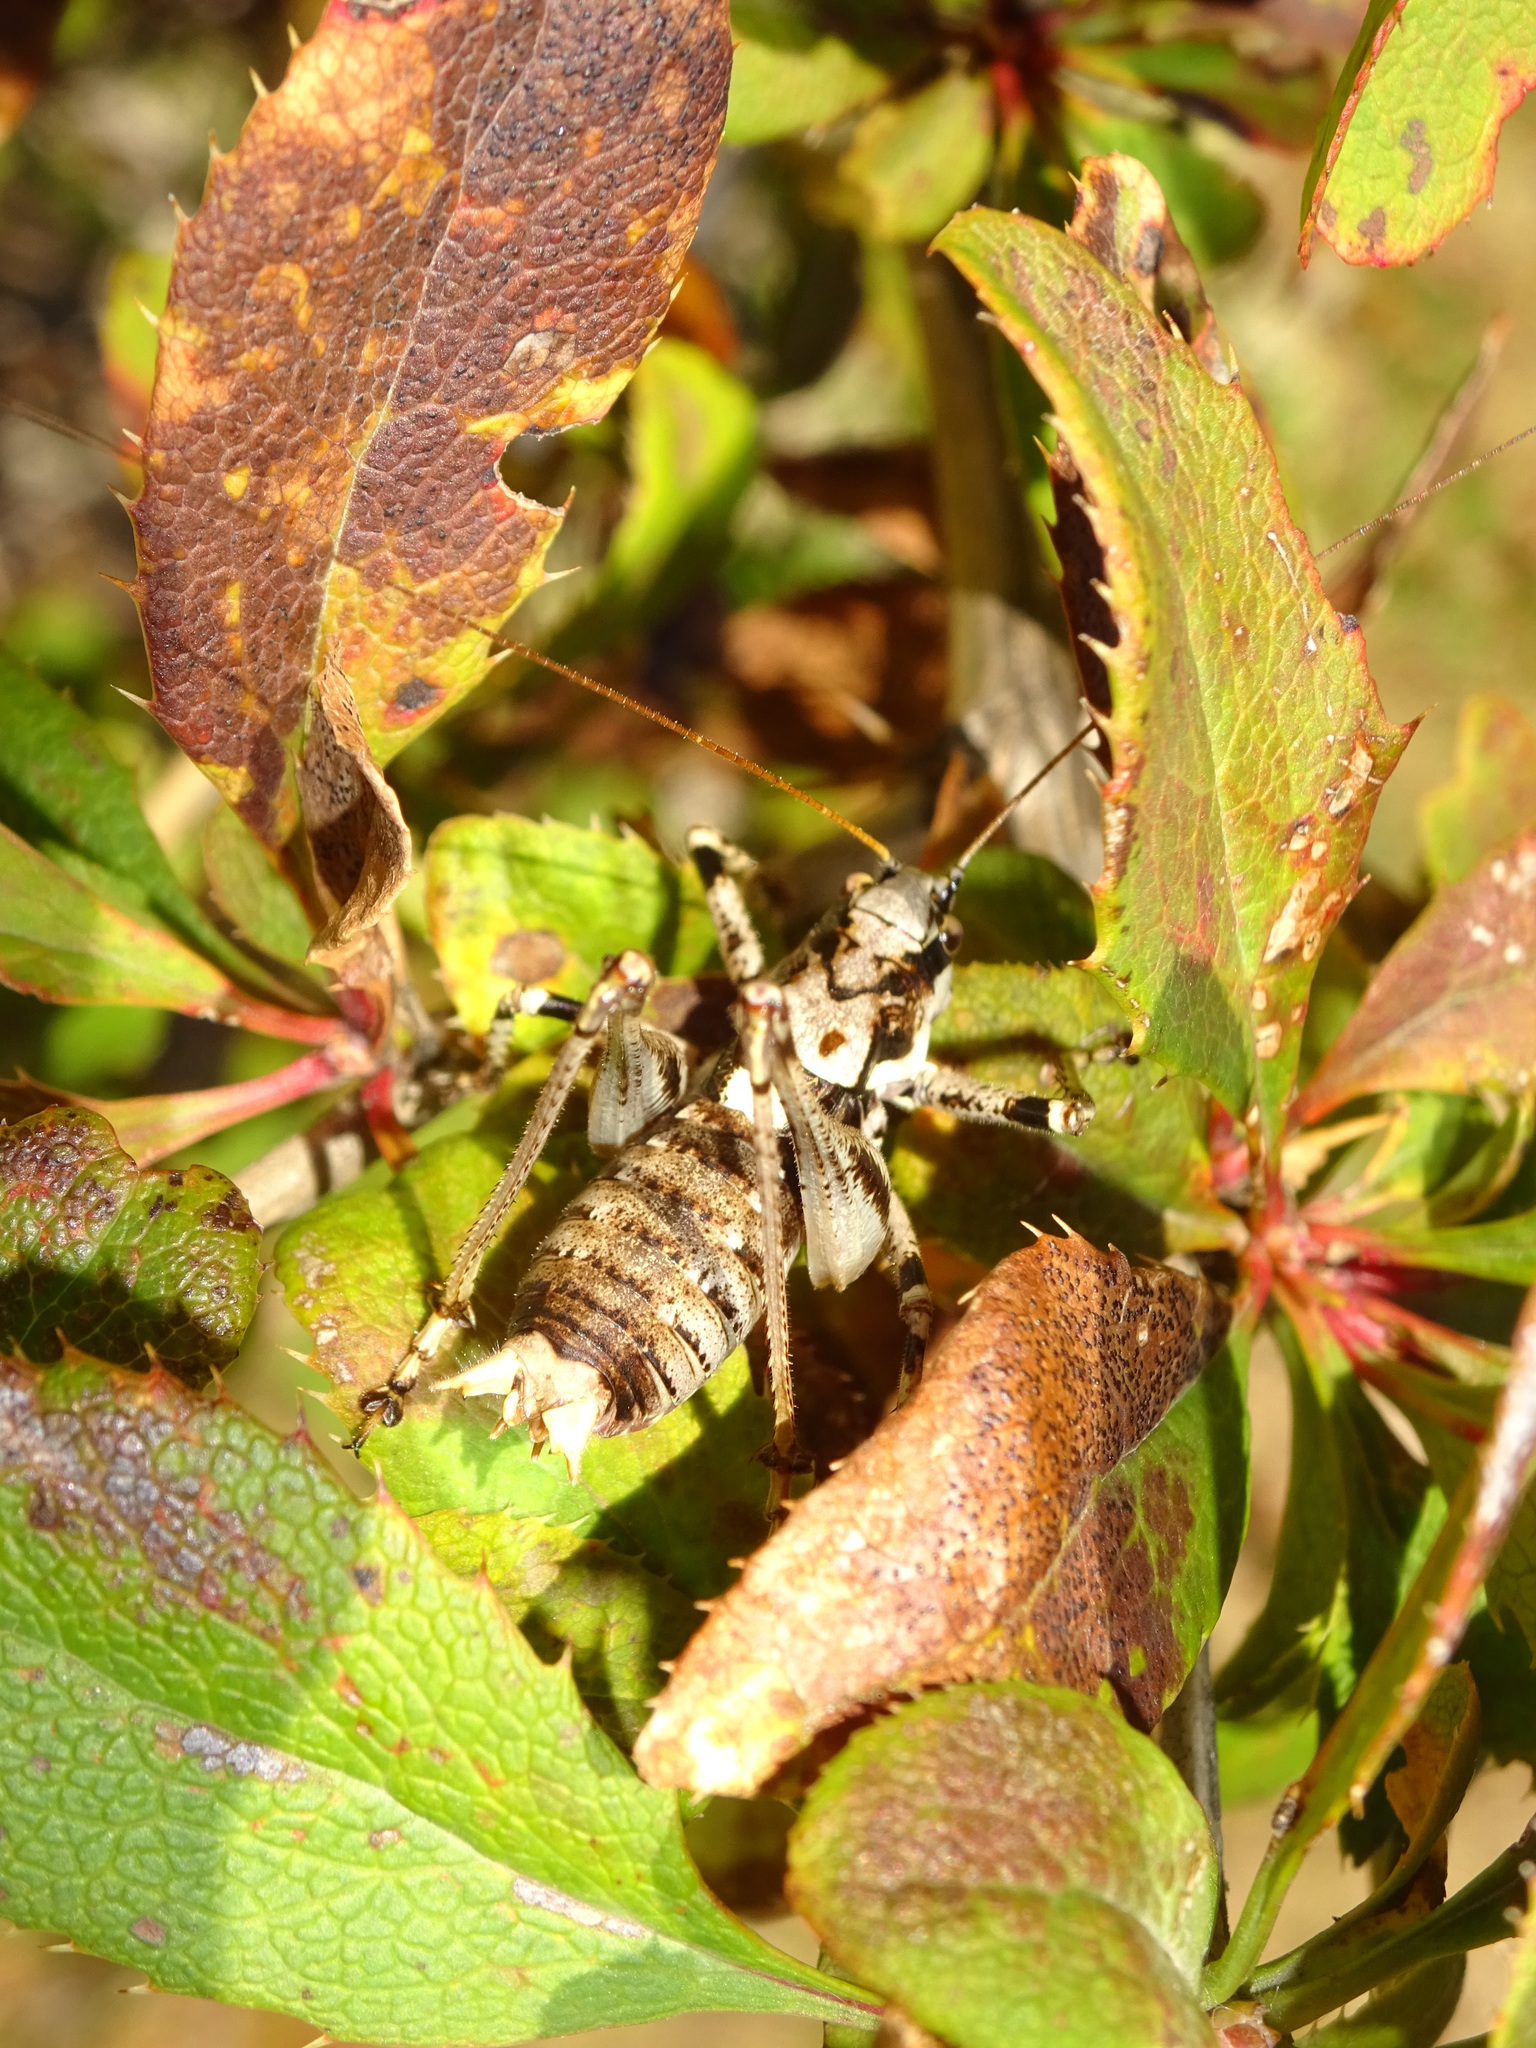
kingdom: Animalia
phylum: Arthropoda
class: Insecta
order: Orthoptera
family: Tettigoniidae
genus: Antaxius
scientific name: Antaxius pedestris
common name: Common mountain bush-cricket
